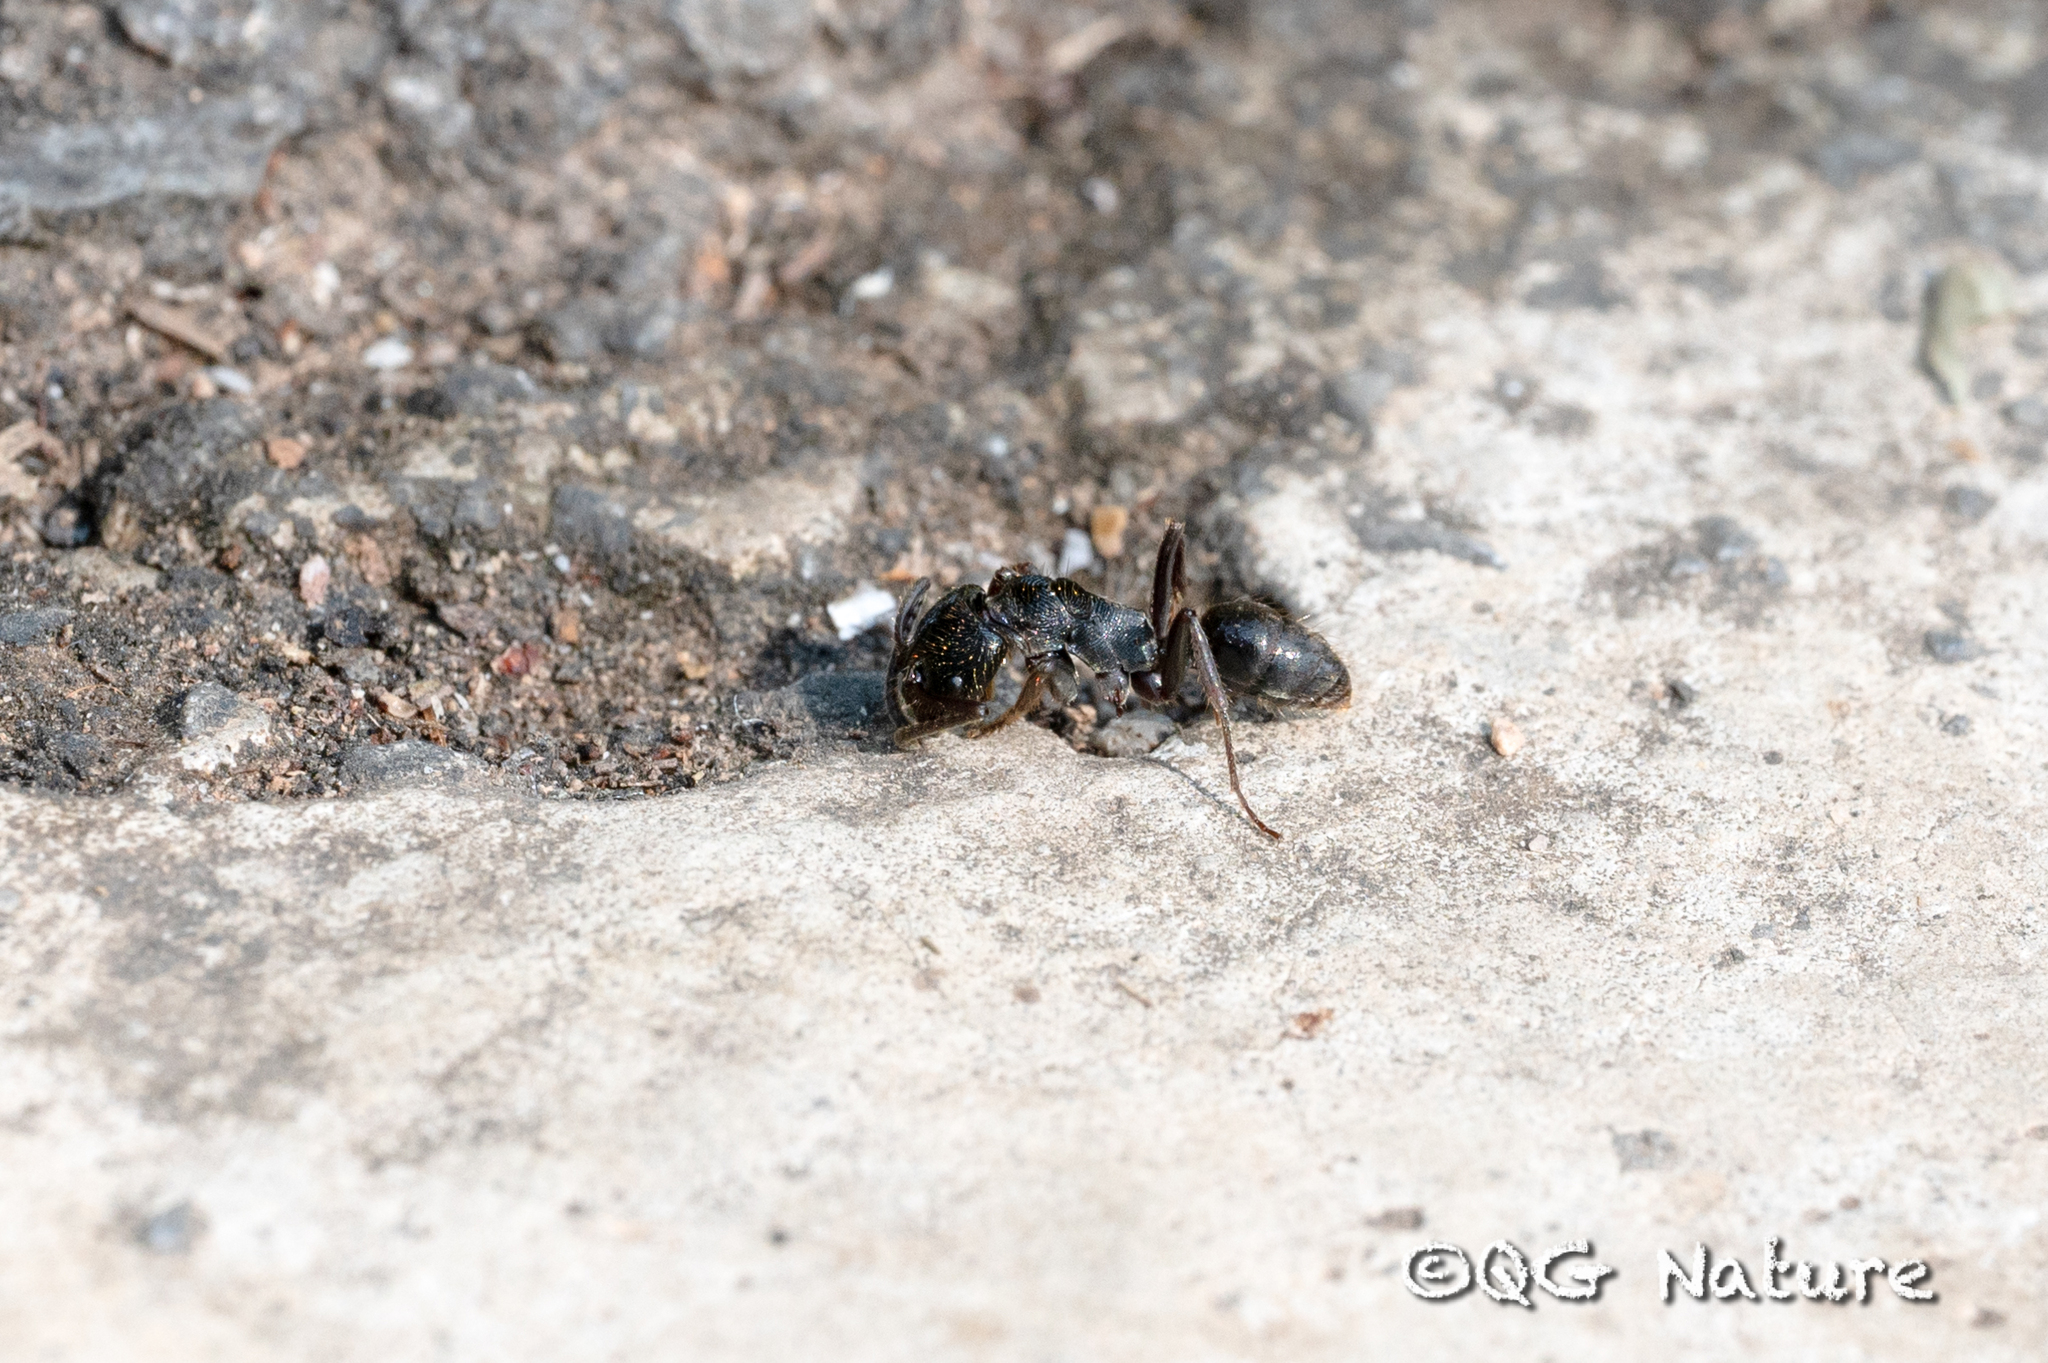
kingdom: Animalia
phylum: Arthropoda
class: Insecta
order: Hymenoptera
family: Formicidae
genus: Odontoponera
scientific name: Odontoponera denticulata
